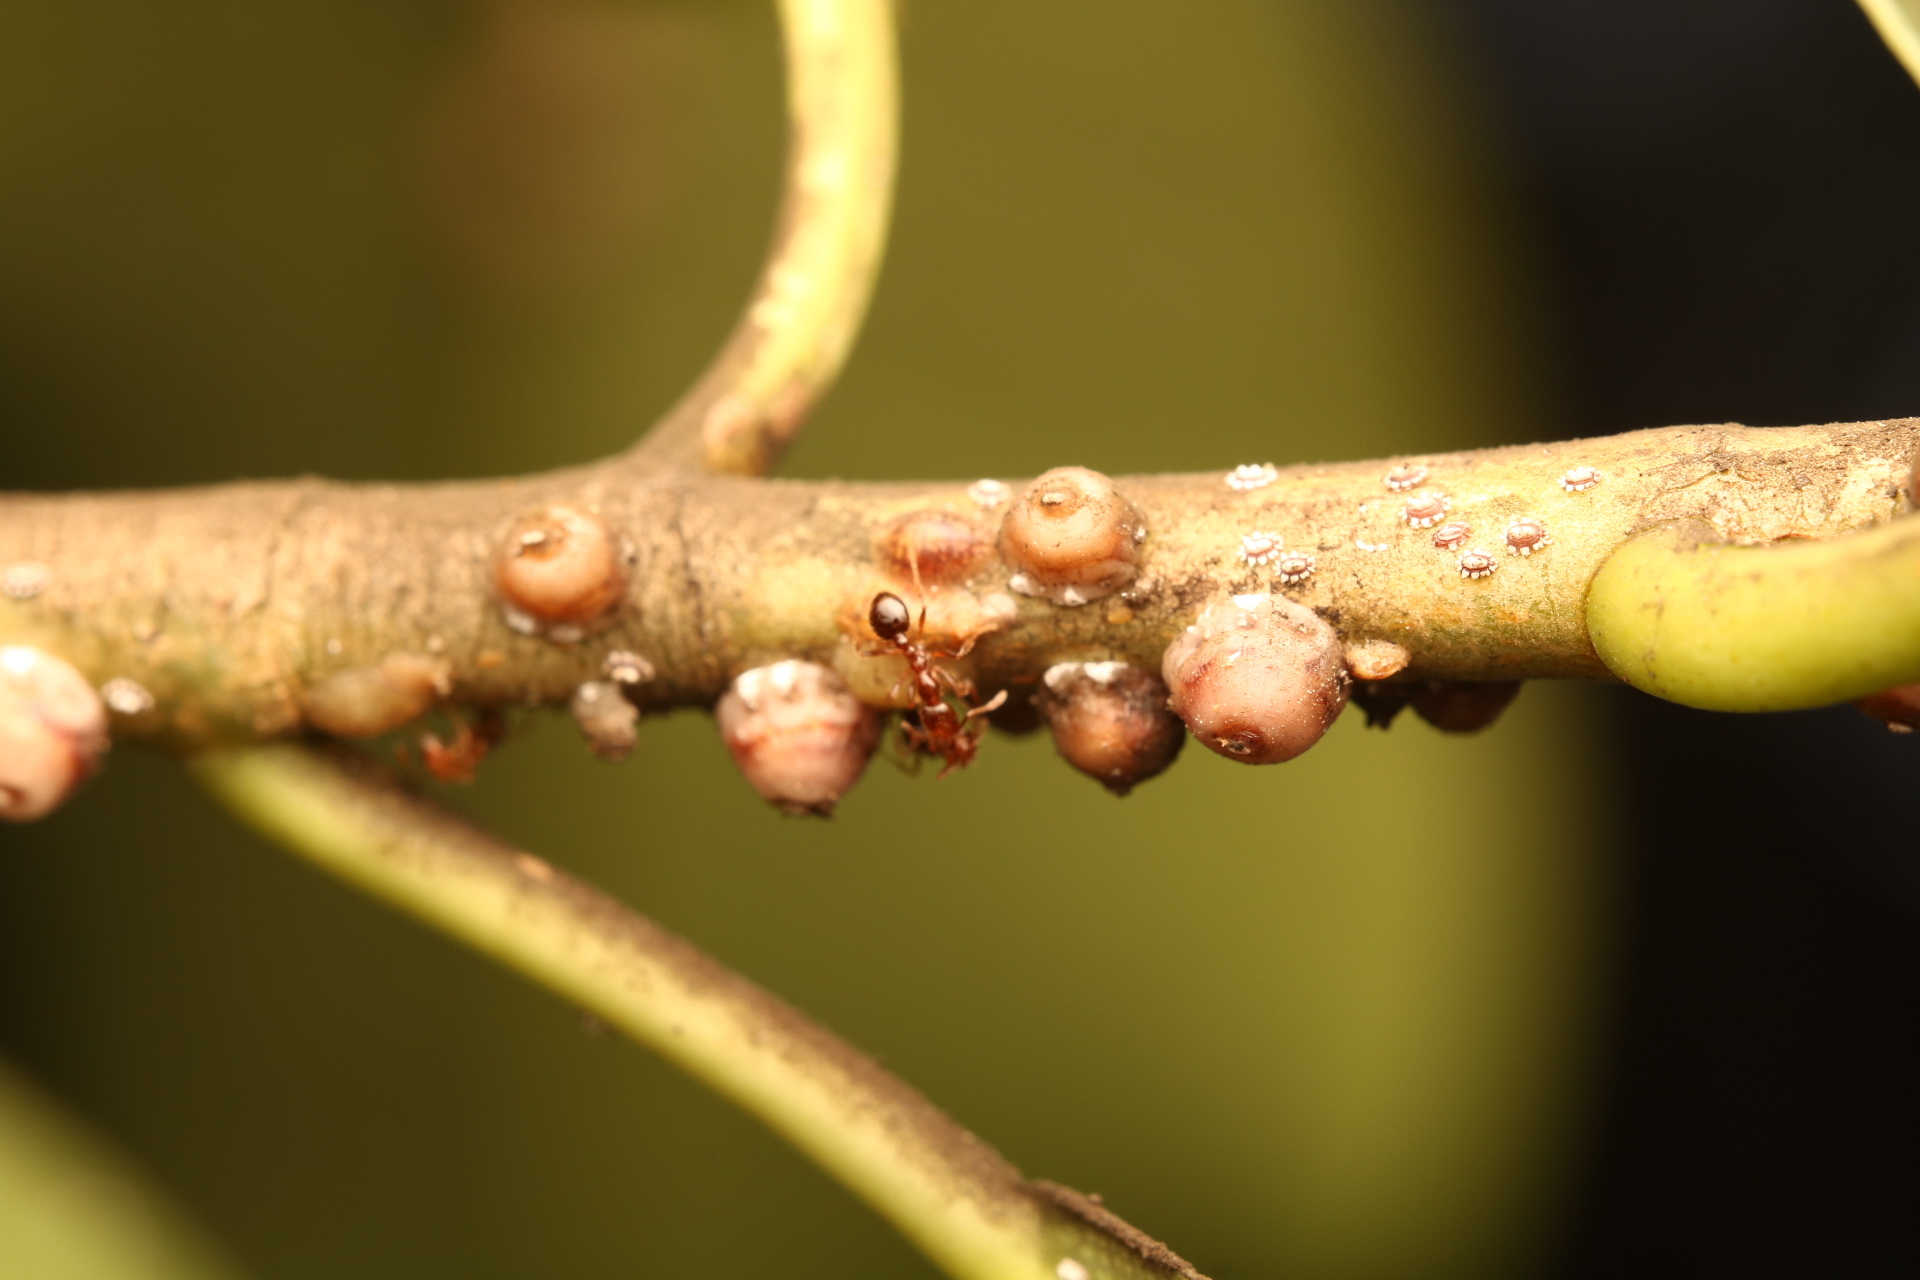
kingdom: Animalia
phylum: Arthropoda
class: Insecta
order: Hymenoptera
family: Formicidae
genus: Solenopsis
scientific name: Solenopsis invicta
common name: Red imported fire ant
